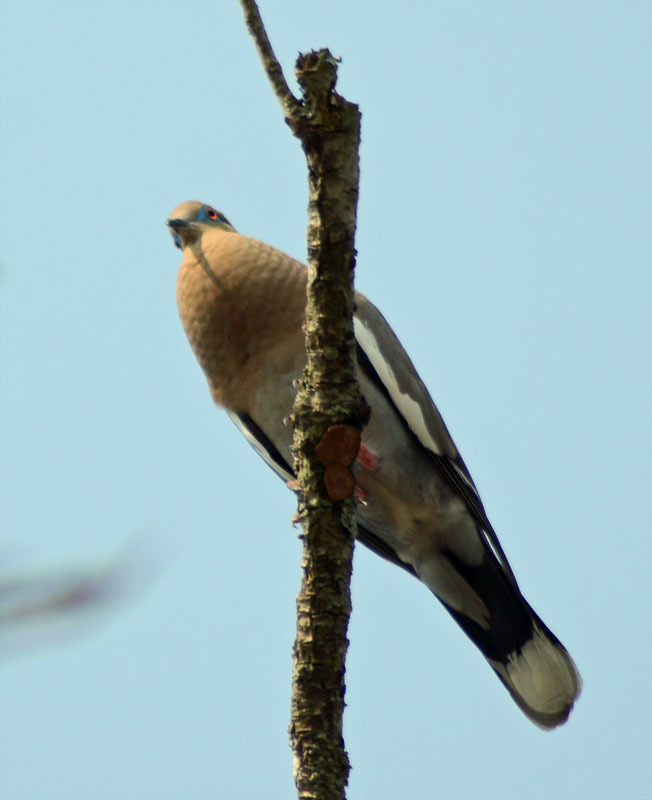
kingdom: Animalia
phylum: Chordata
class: Aves
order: Columbiformes
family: Columbidae
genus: Zenaida
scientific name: Zenaida asiatica
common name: White-winged dove
